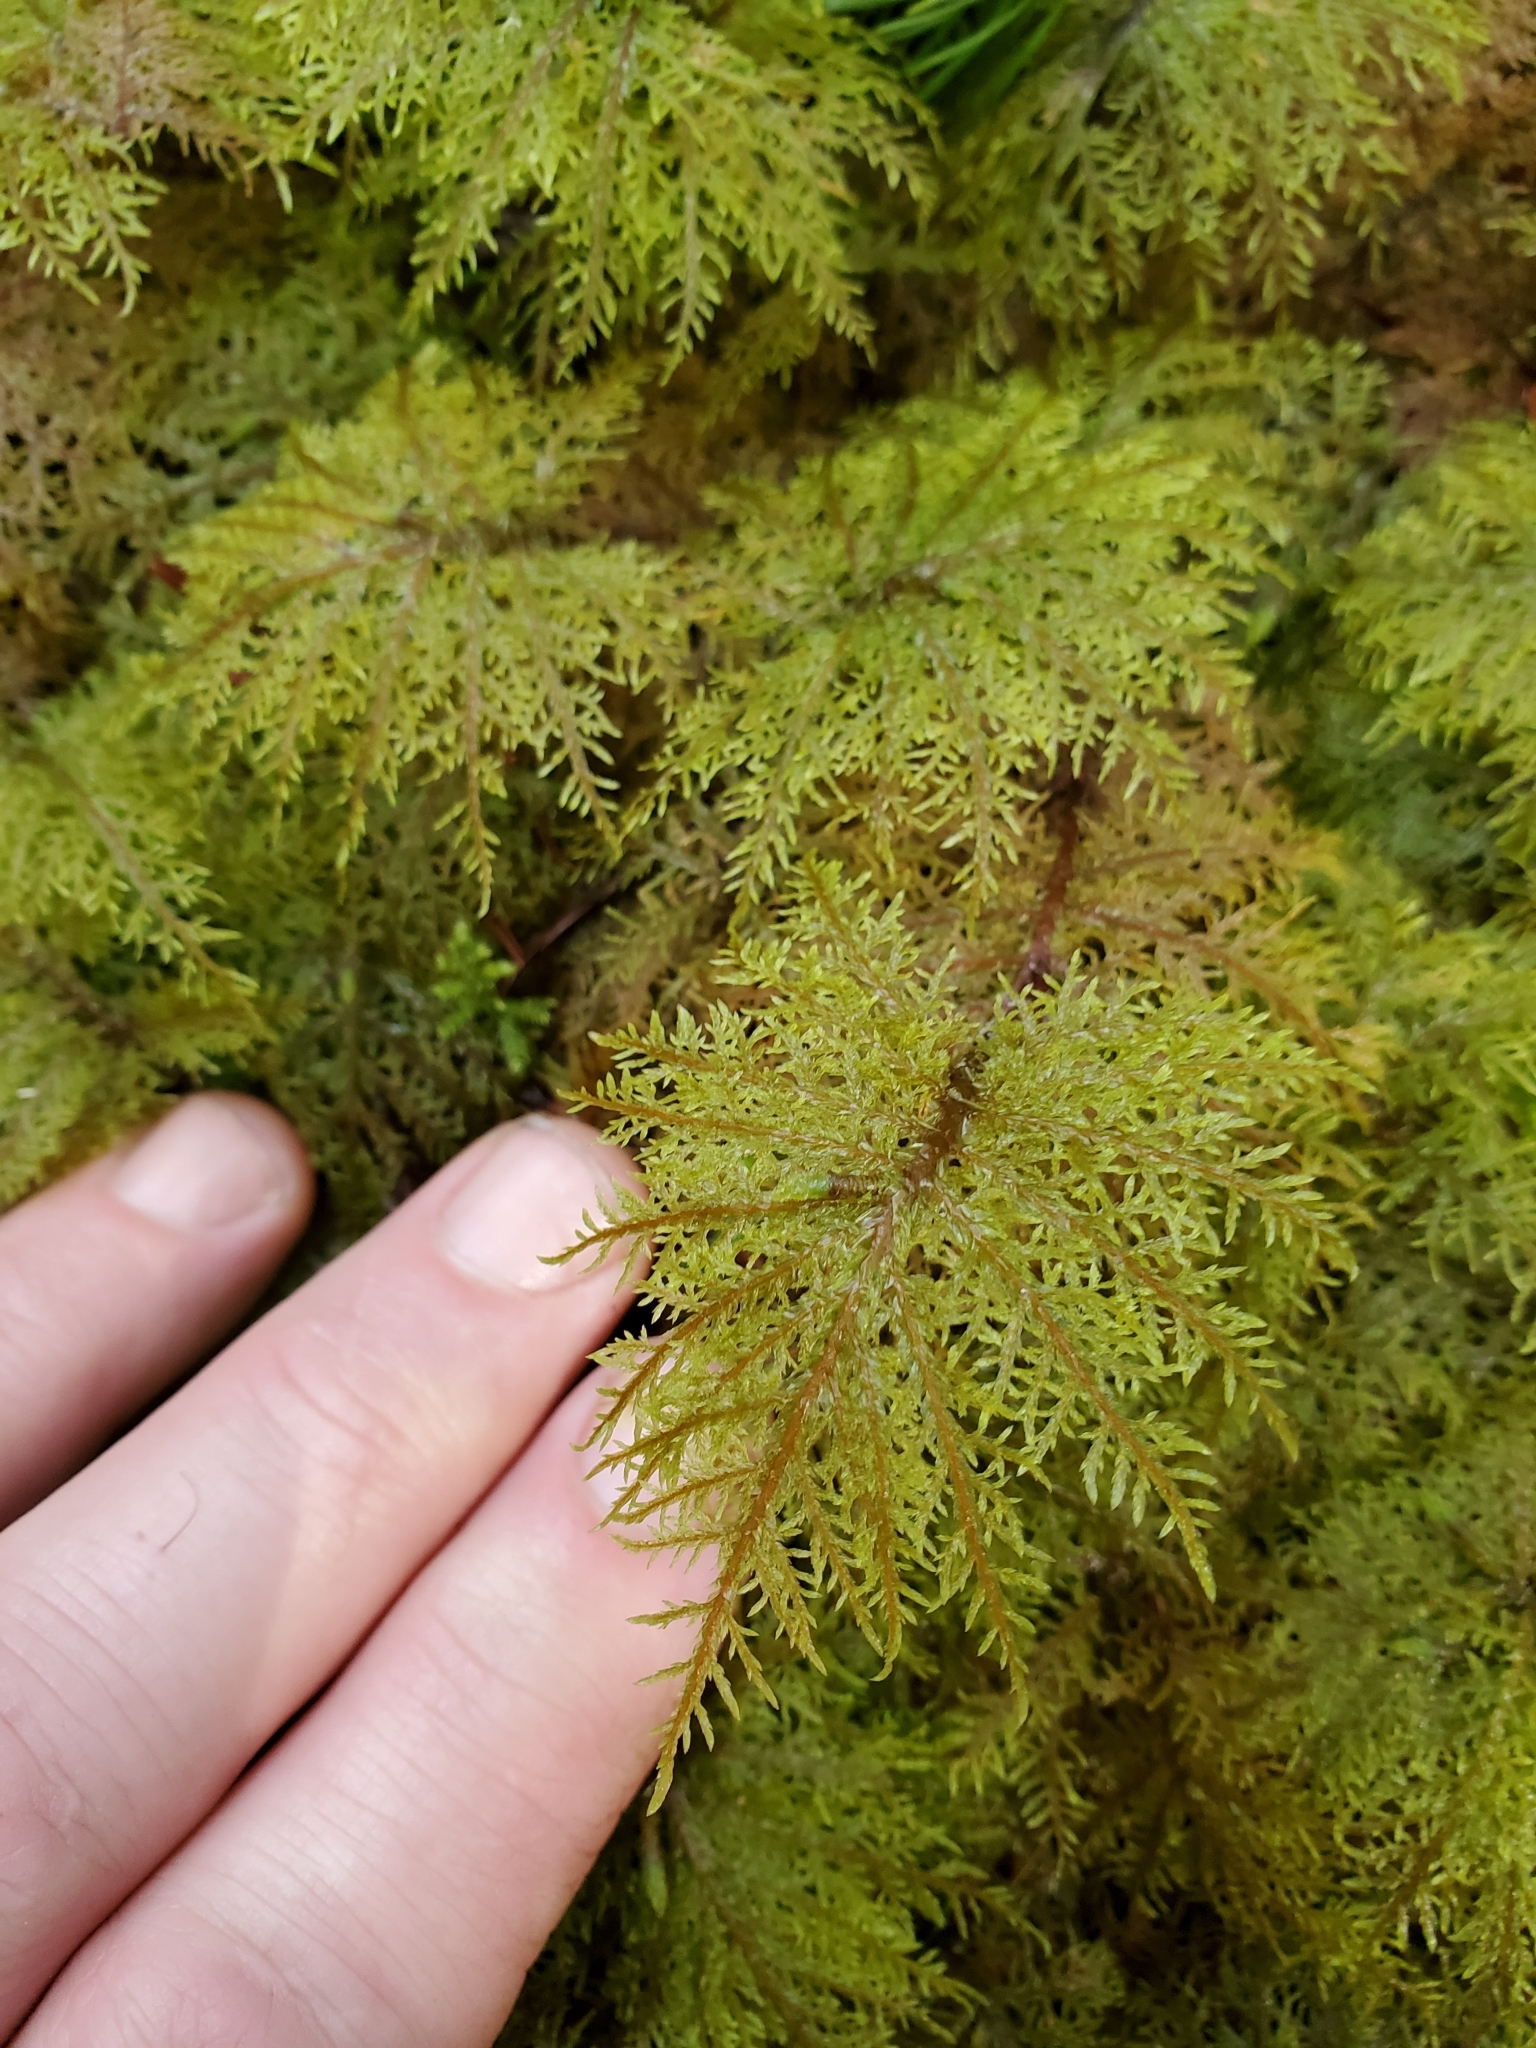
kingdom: Plantae
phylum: Bryophyta
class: Bryopsida
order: Hypnales
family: Hylocomiaceae
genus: Hylocomium
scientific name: Hylocomium splendens
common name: Stairstep moss
